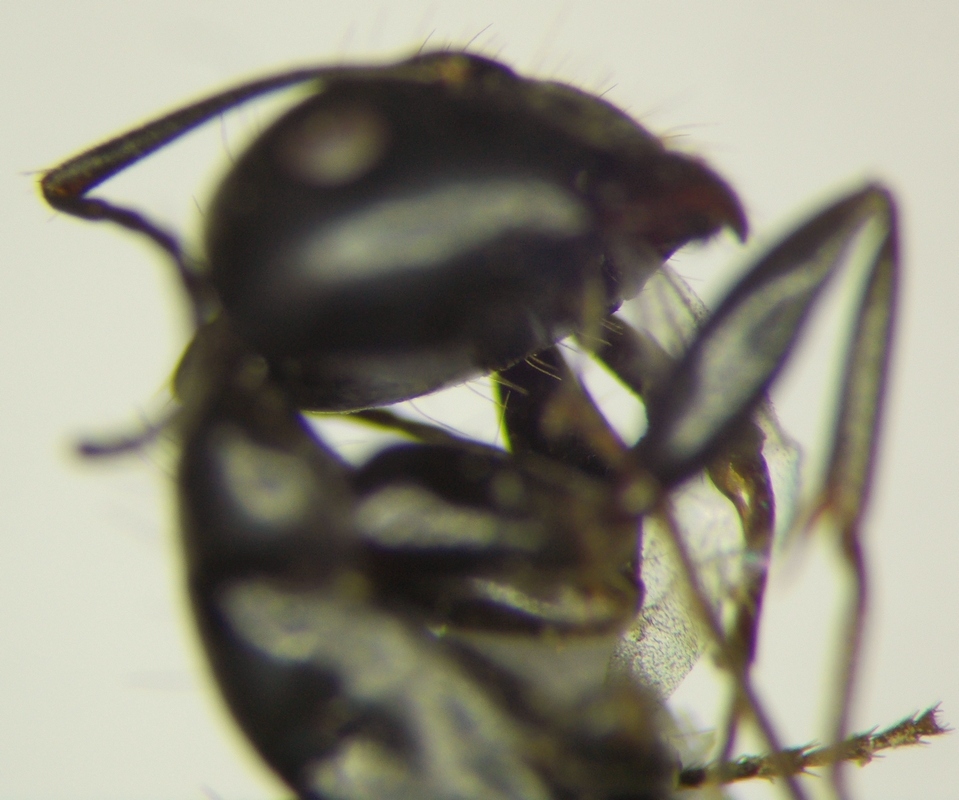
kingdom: Animalia
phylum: Arthropoda
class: Insecta
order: Hymenoptera
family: Formicidae
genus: Camponotus
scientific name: Camponotus aethiops
